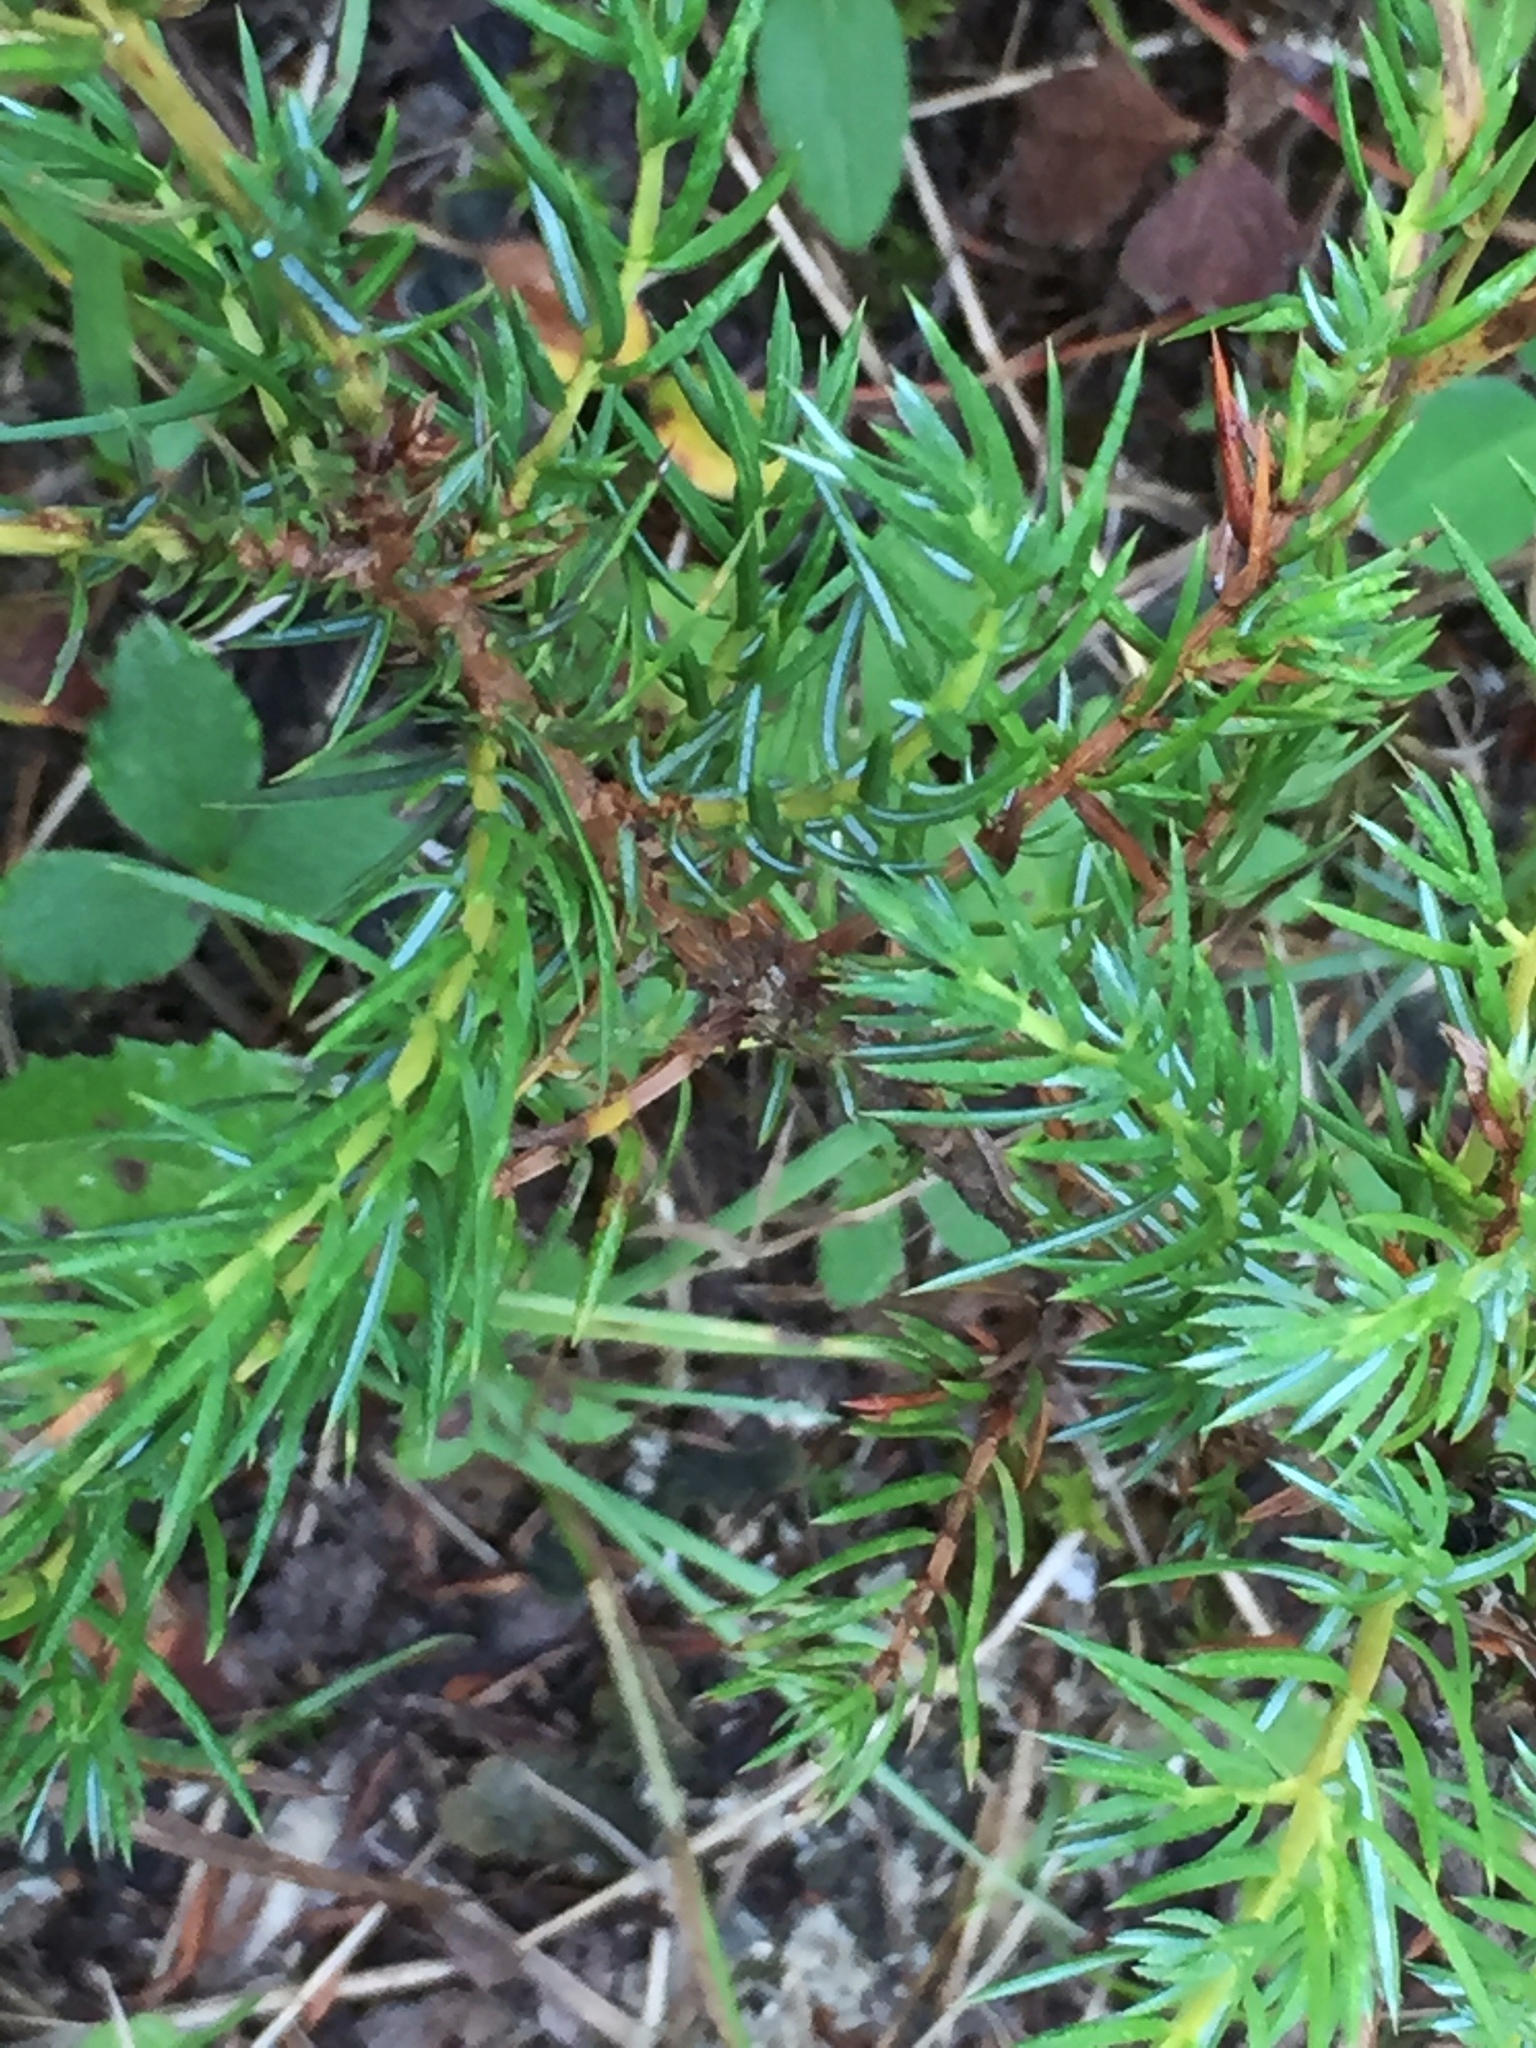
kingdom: Plantae
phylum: Tracheophyta
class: Pinopsida
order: Pinales
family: Cupressaceae
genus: Juniperus
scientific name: Juniperus communis
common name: Common juniper
